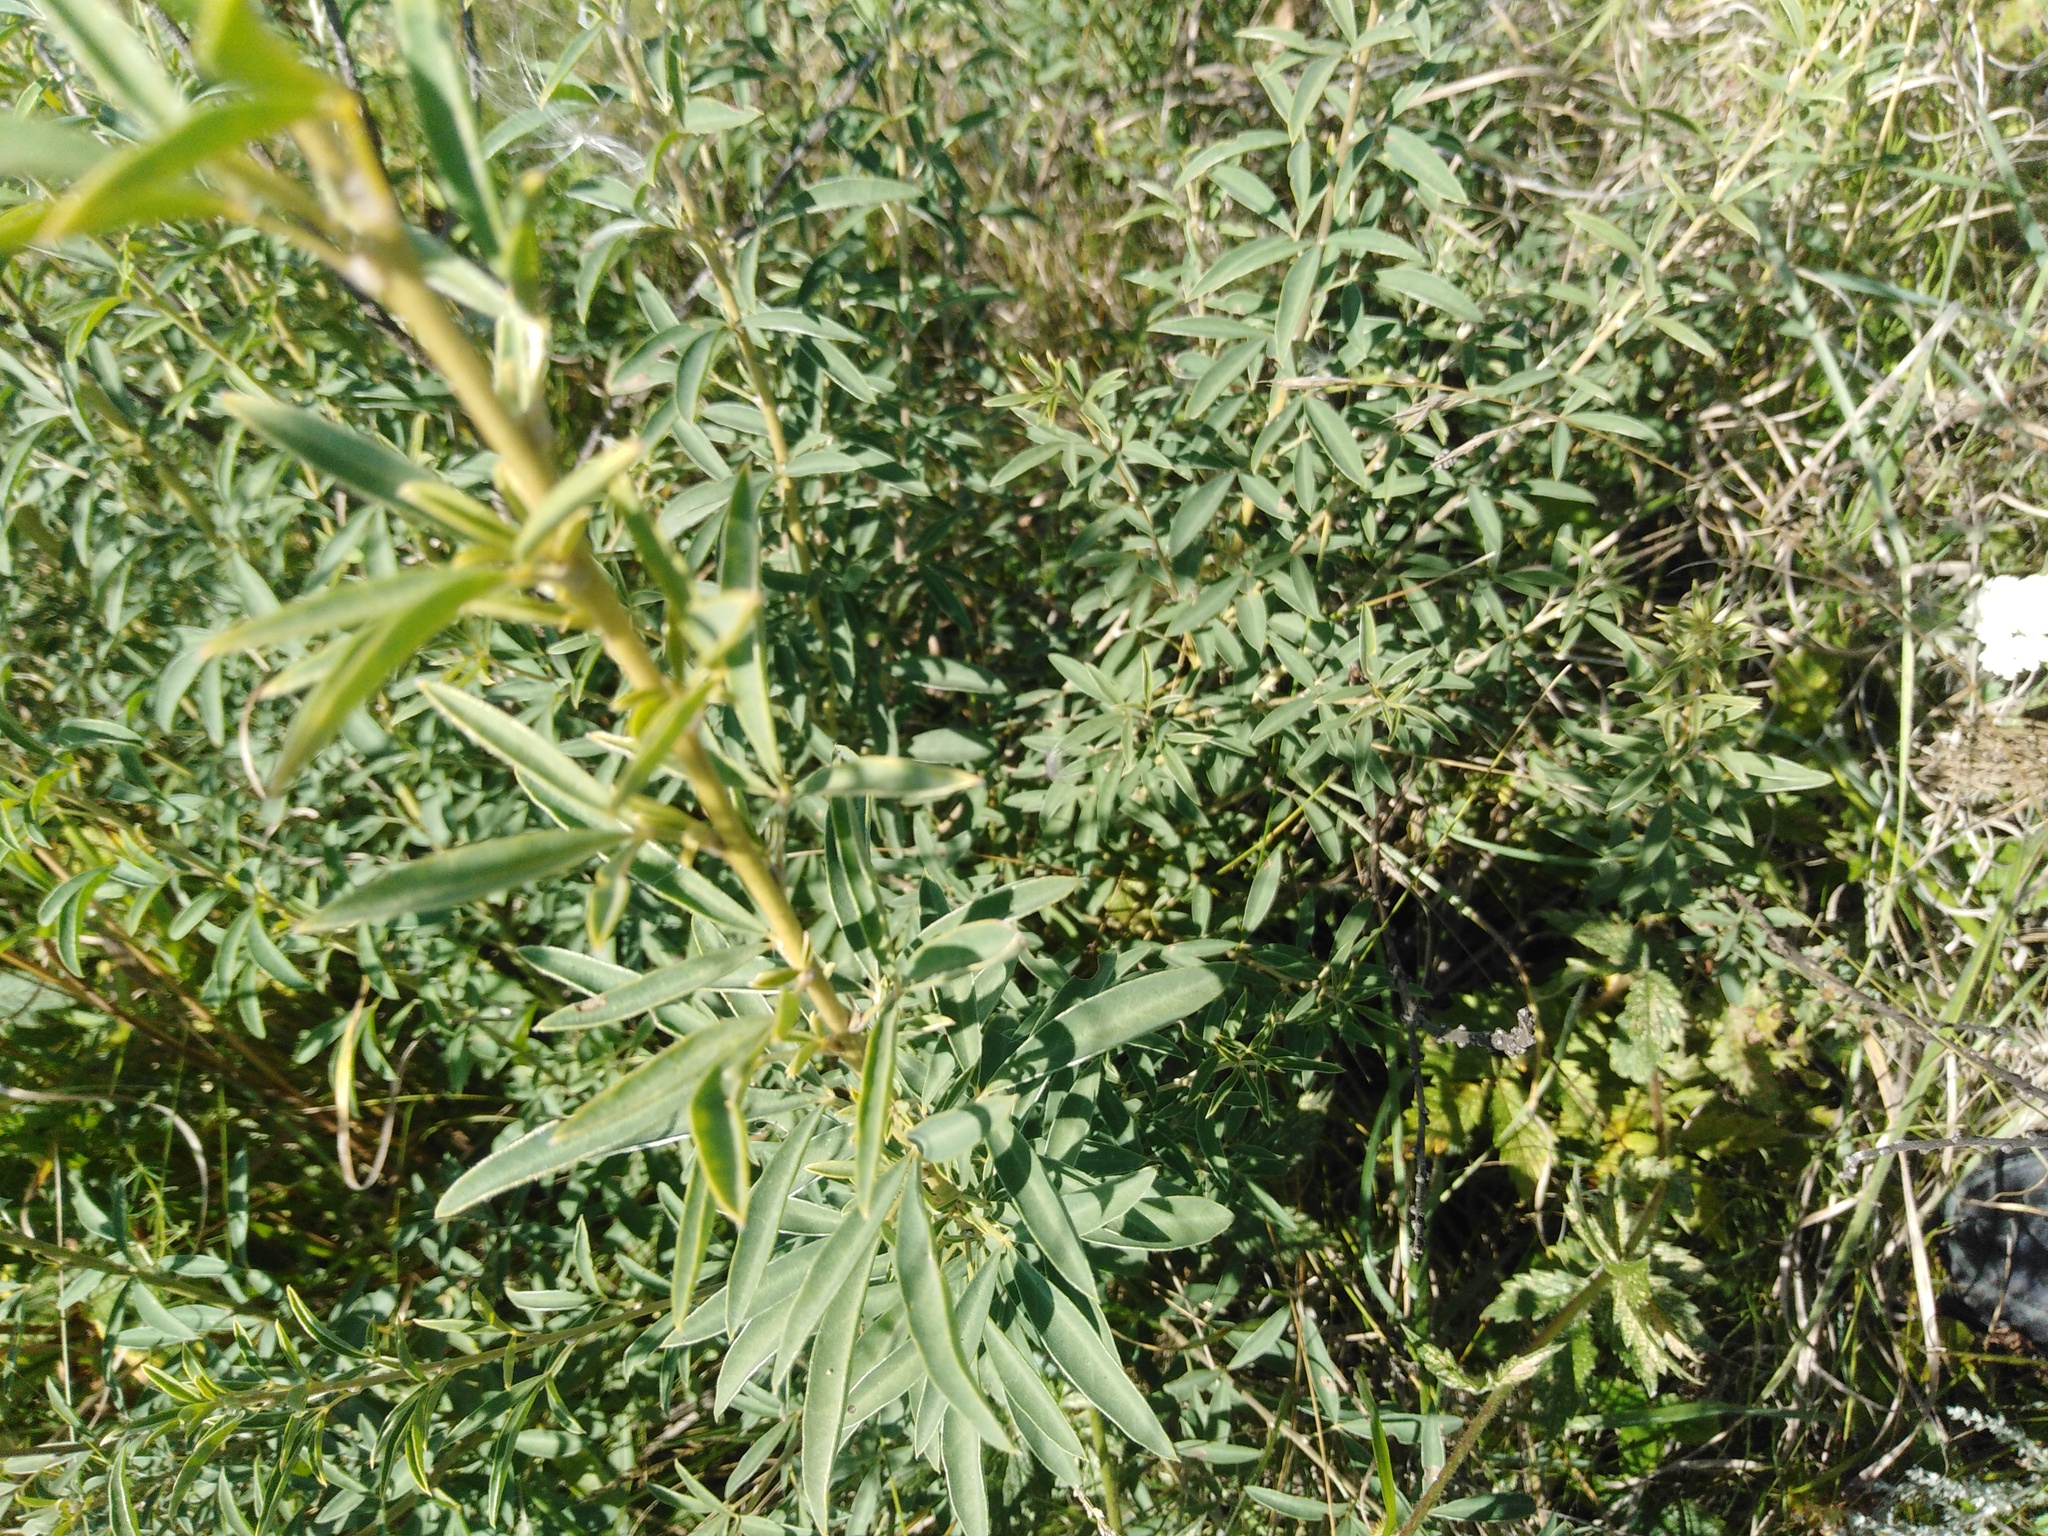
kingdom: Plantae
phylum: Tracheophyta
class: Magnoliopsida
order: Fabales
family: Fabaceae
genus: Chamaecytisus
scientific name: Chamaecytisus ruthenicus
